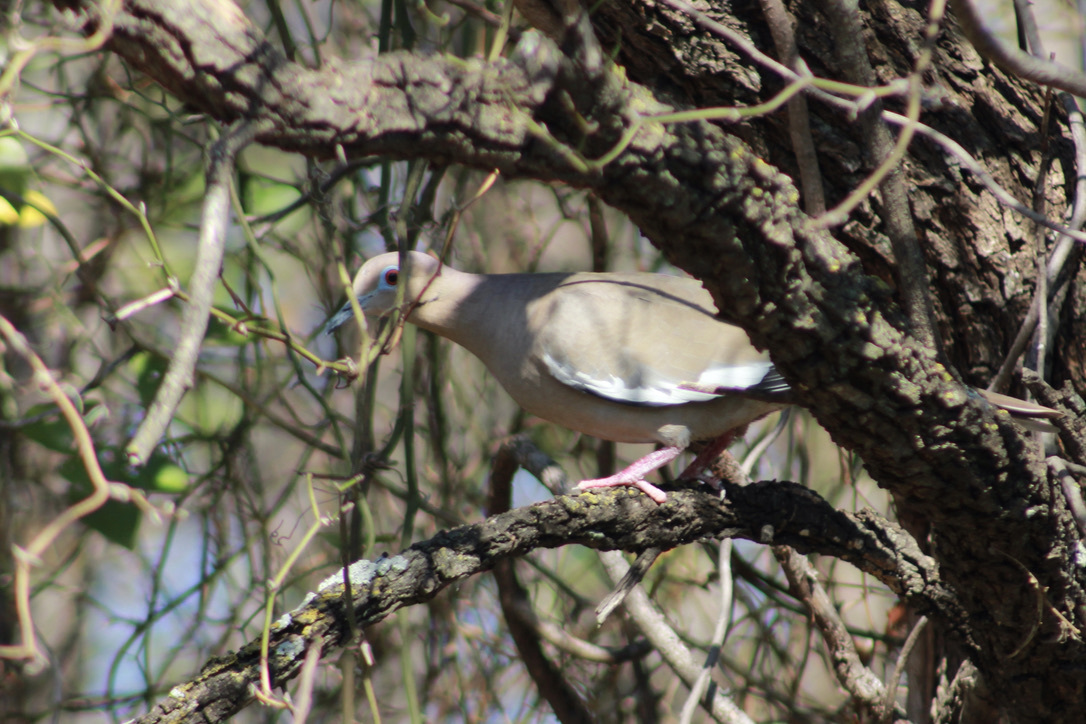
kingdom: Animalia
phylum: Chordata
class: Aves
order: Columbiformes
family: Columbidae
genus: Zenaida
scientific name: Zenaida asiatica
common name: White-winged dove
